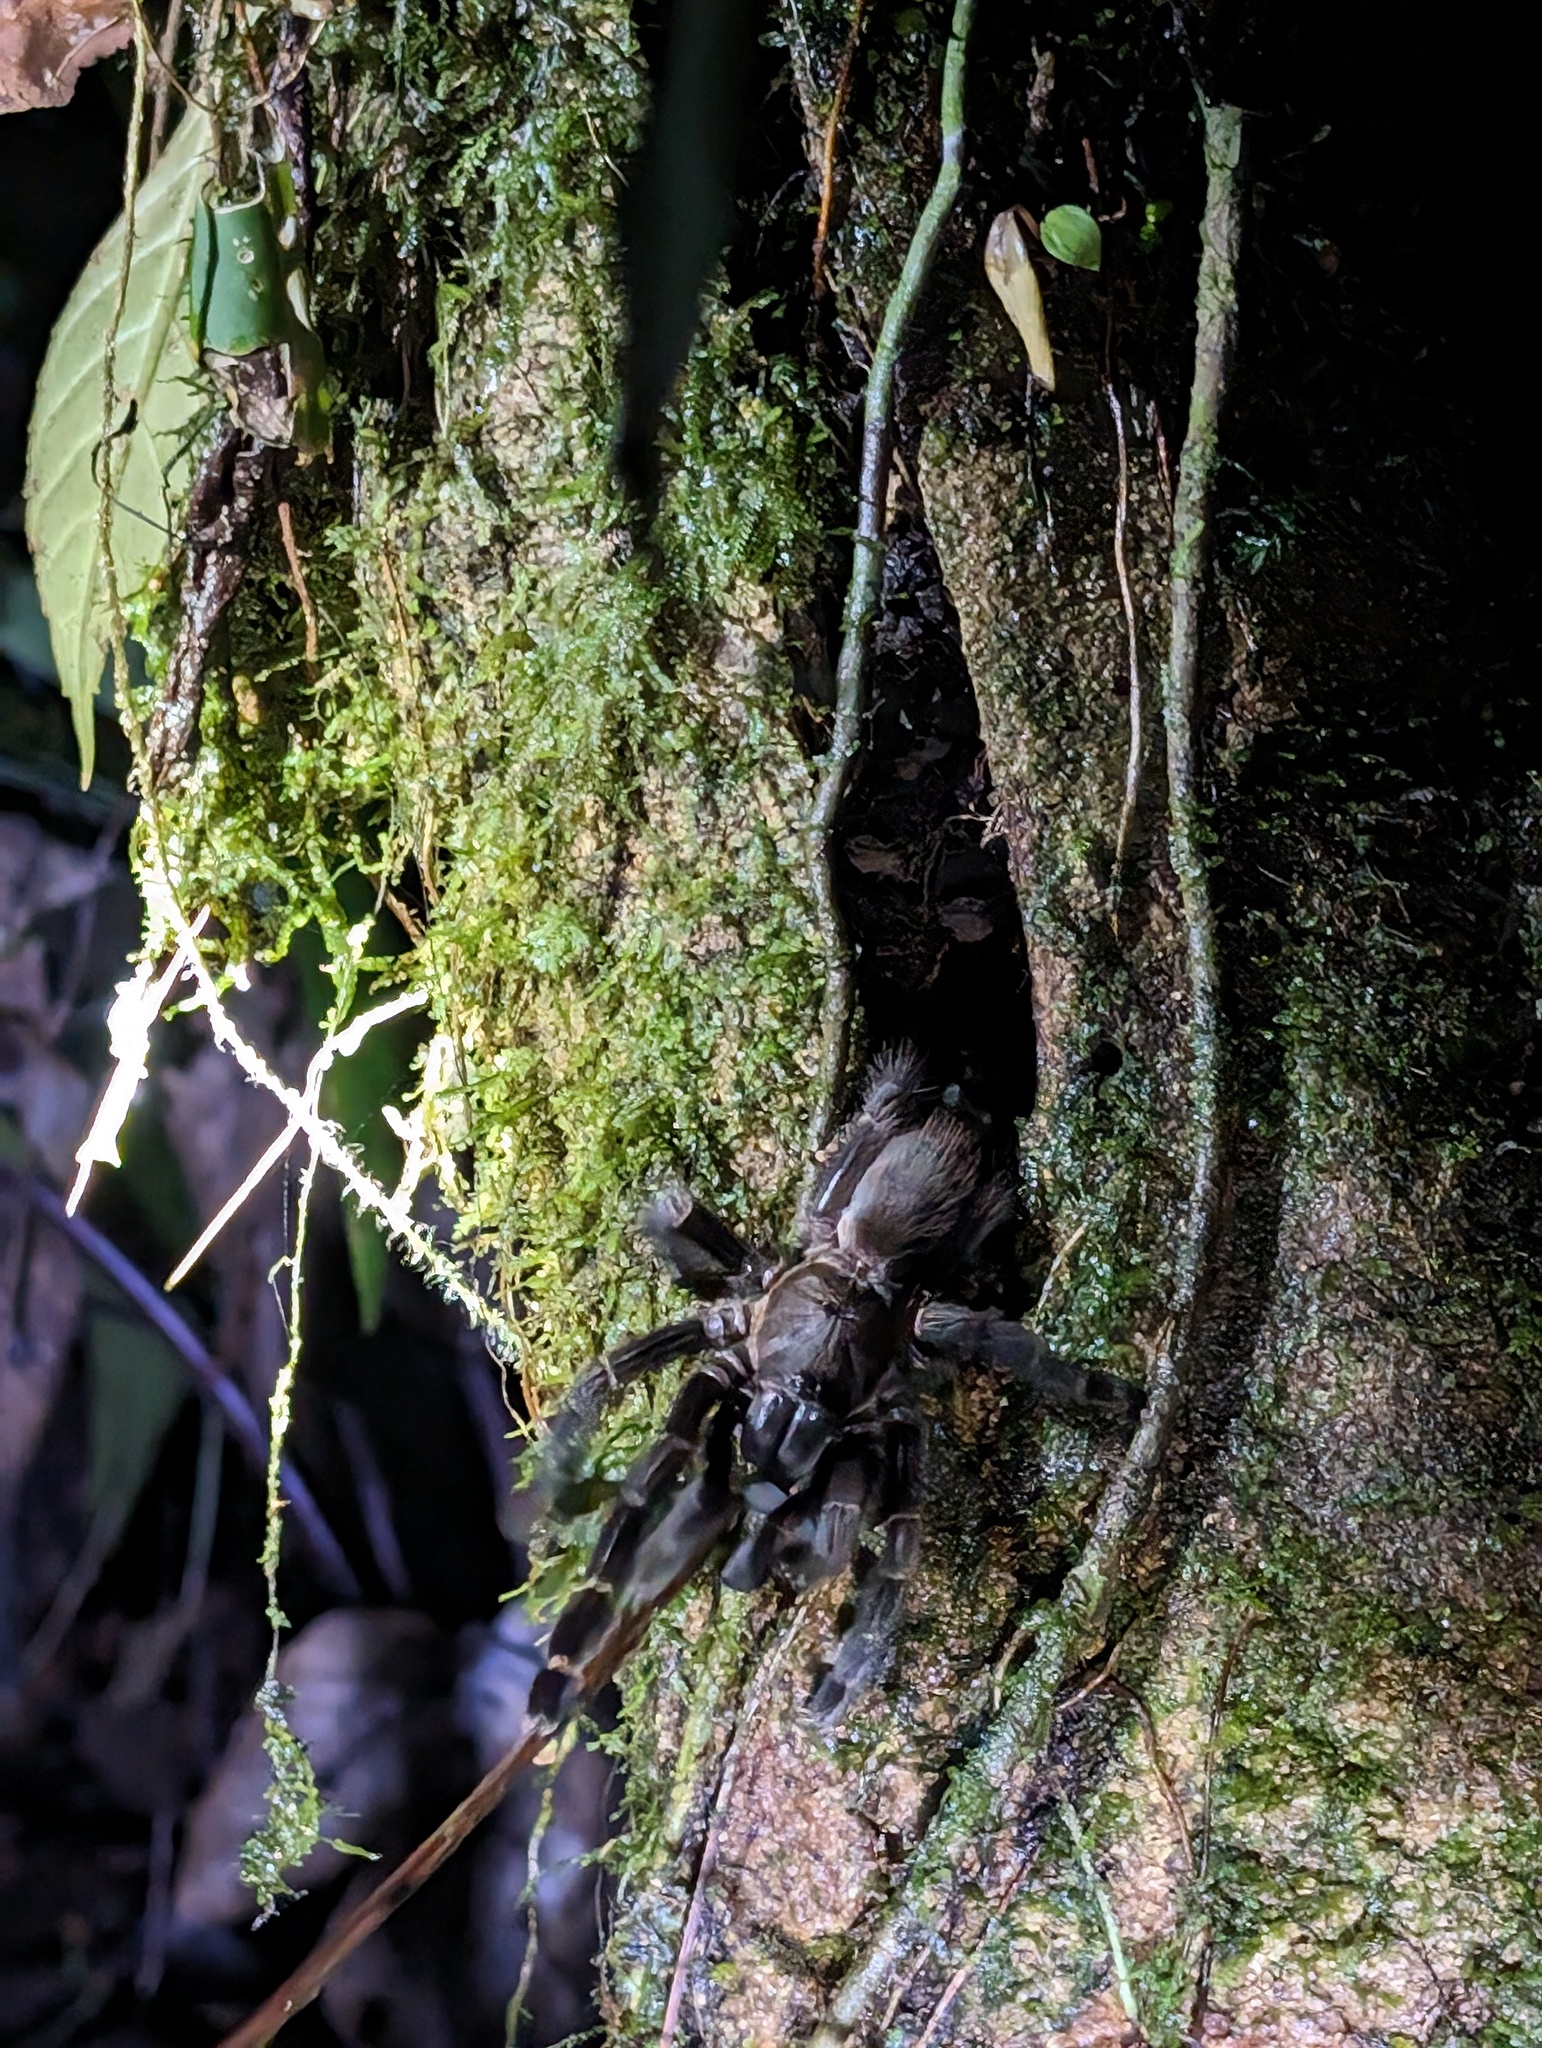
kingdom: Animalia
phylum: Arthropoda
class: Arachnida
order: Araneae
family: Theraphosidae
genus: Psalmopoeus
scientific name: Psalmopoeus reduncus
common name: Tarantula spiders
